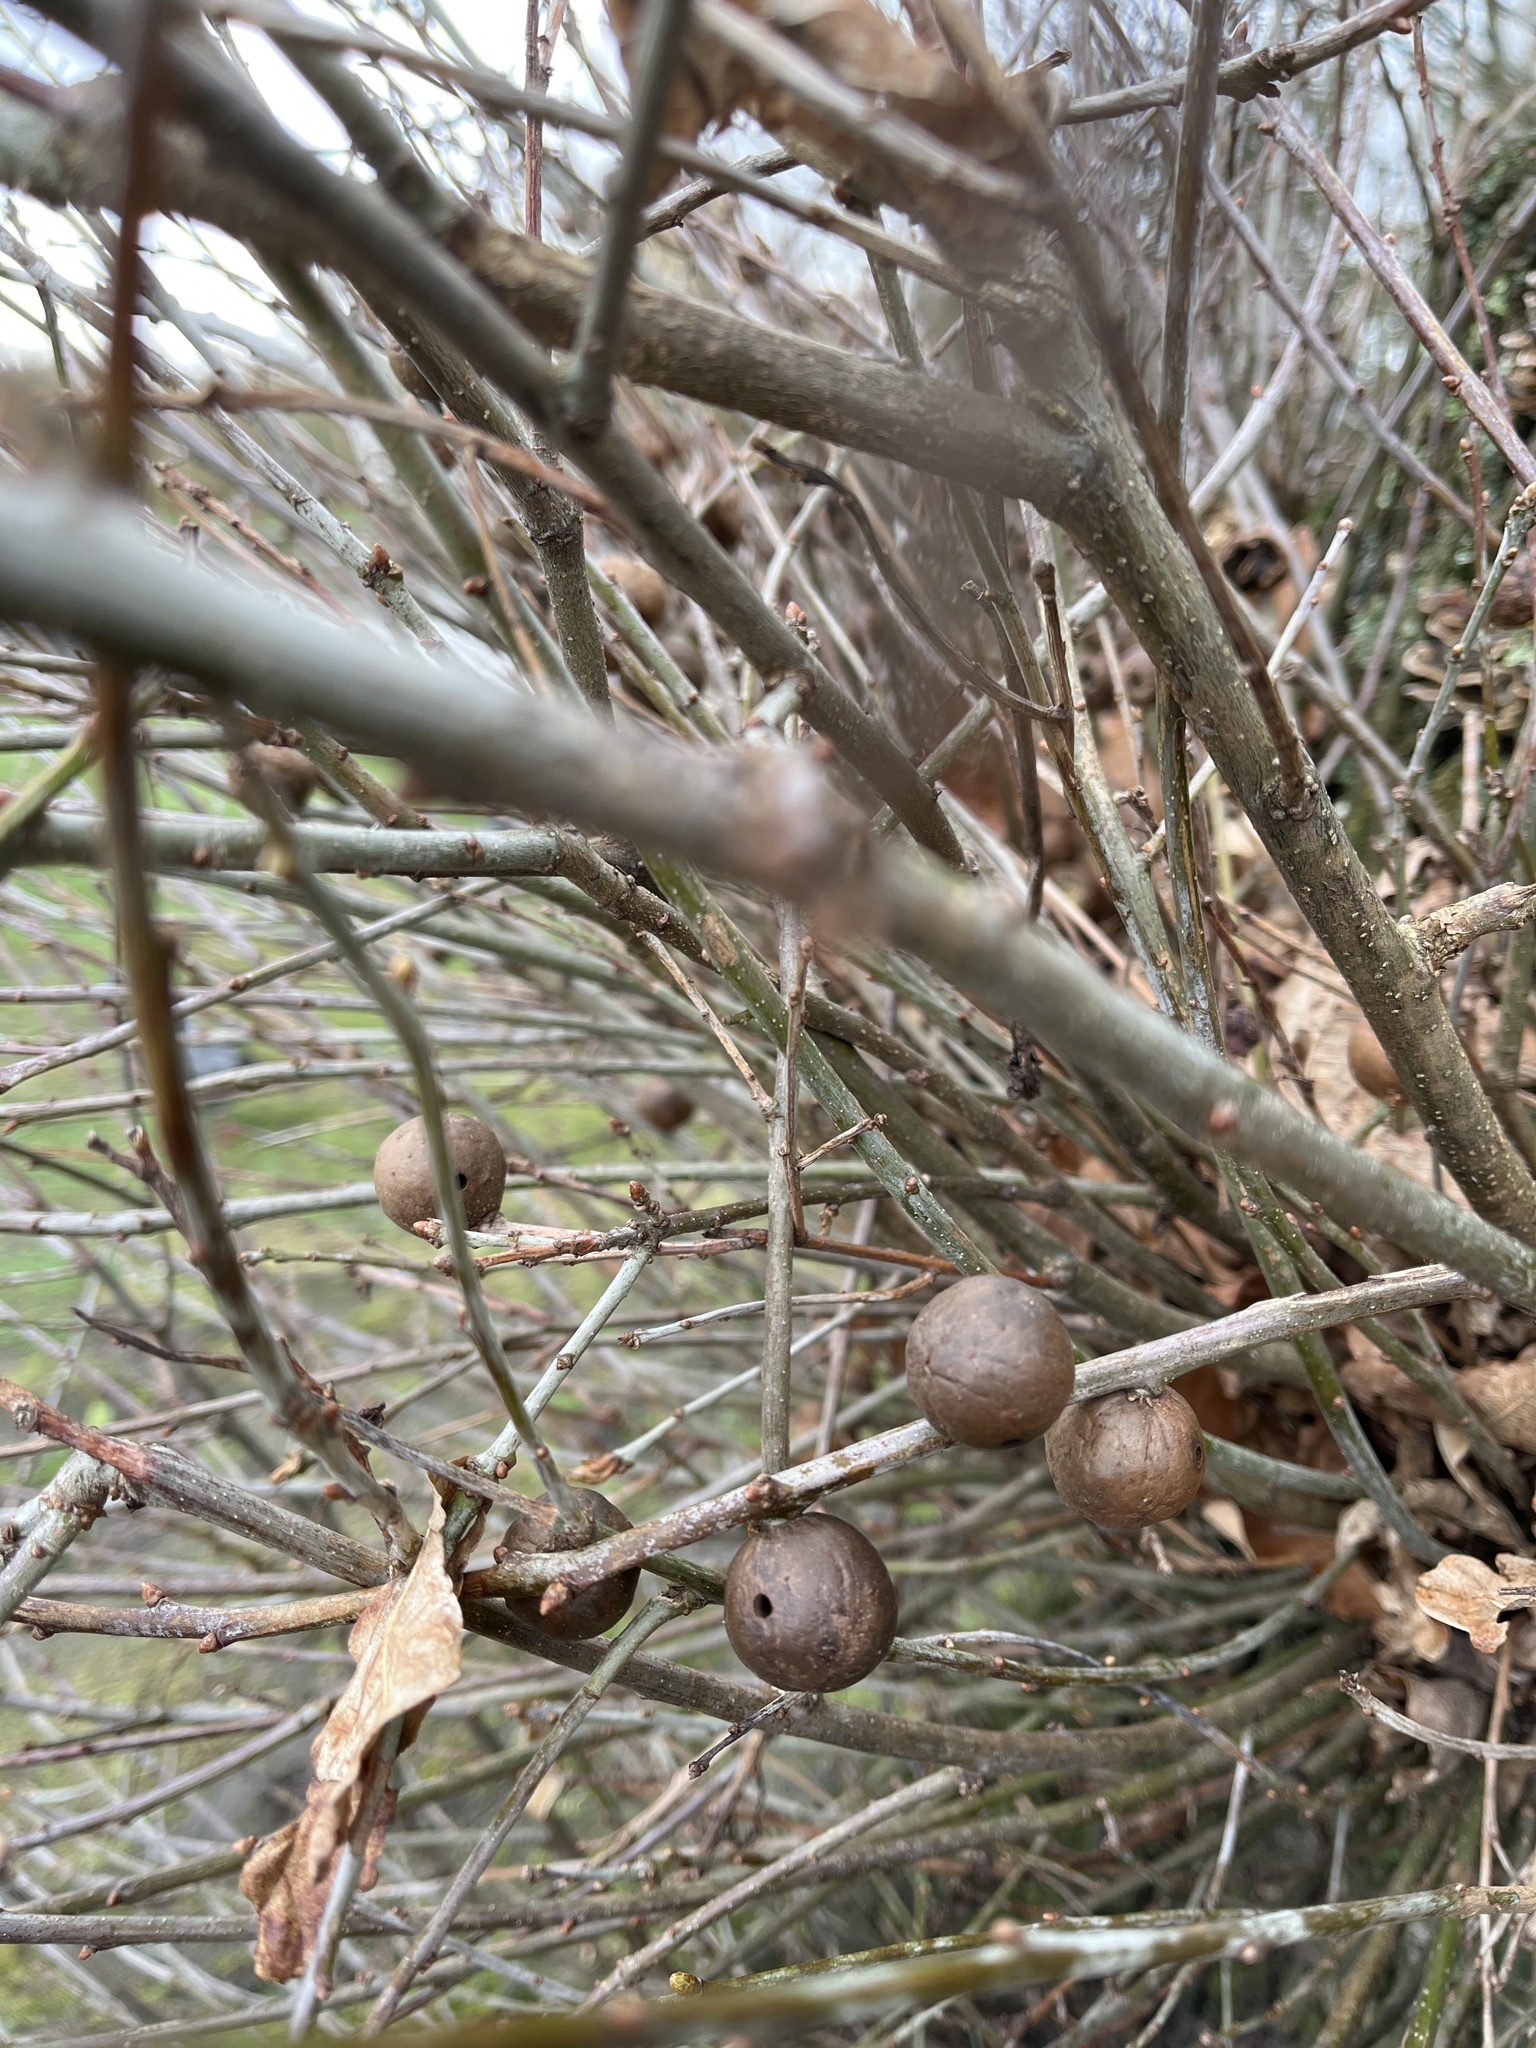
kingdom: Animalia
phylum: Arthropoda
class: Insecta
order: Hymenoptera
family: Cynipidae
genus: Andricus
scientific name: Andricus kollari
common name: Marble gall
